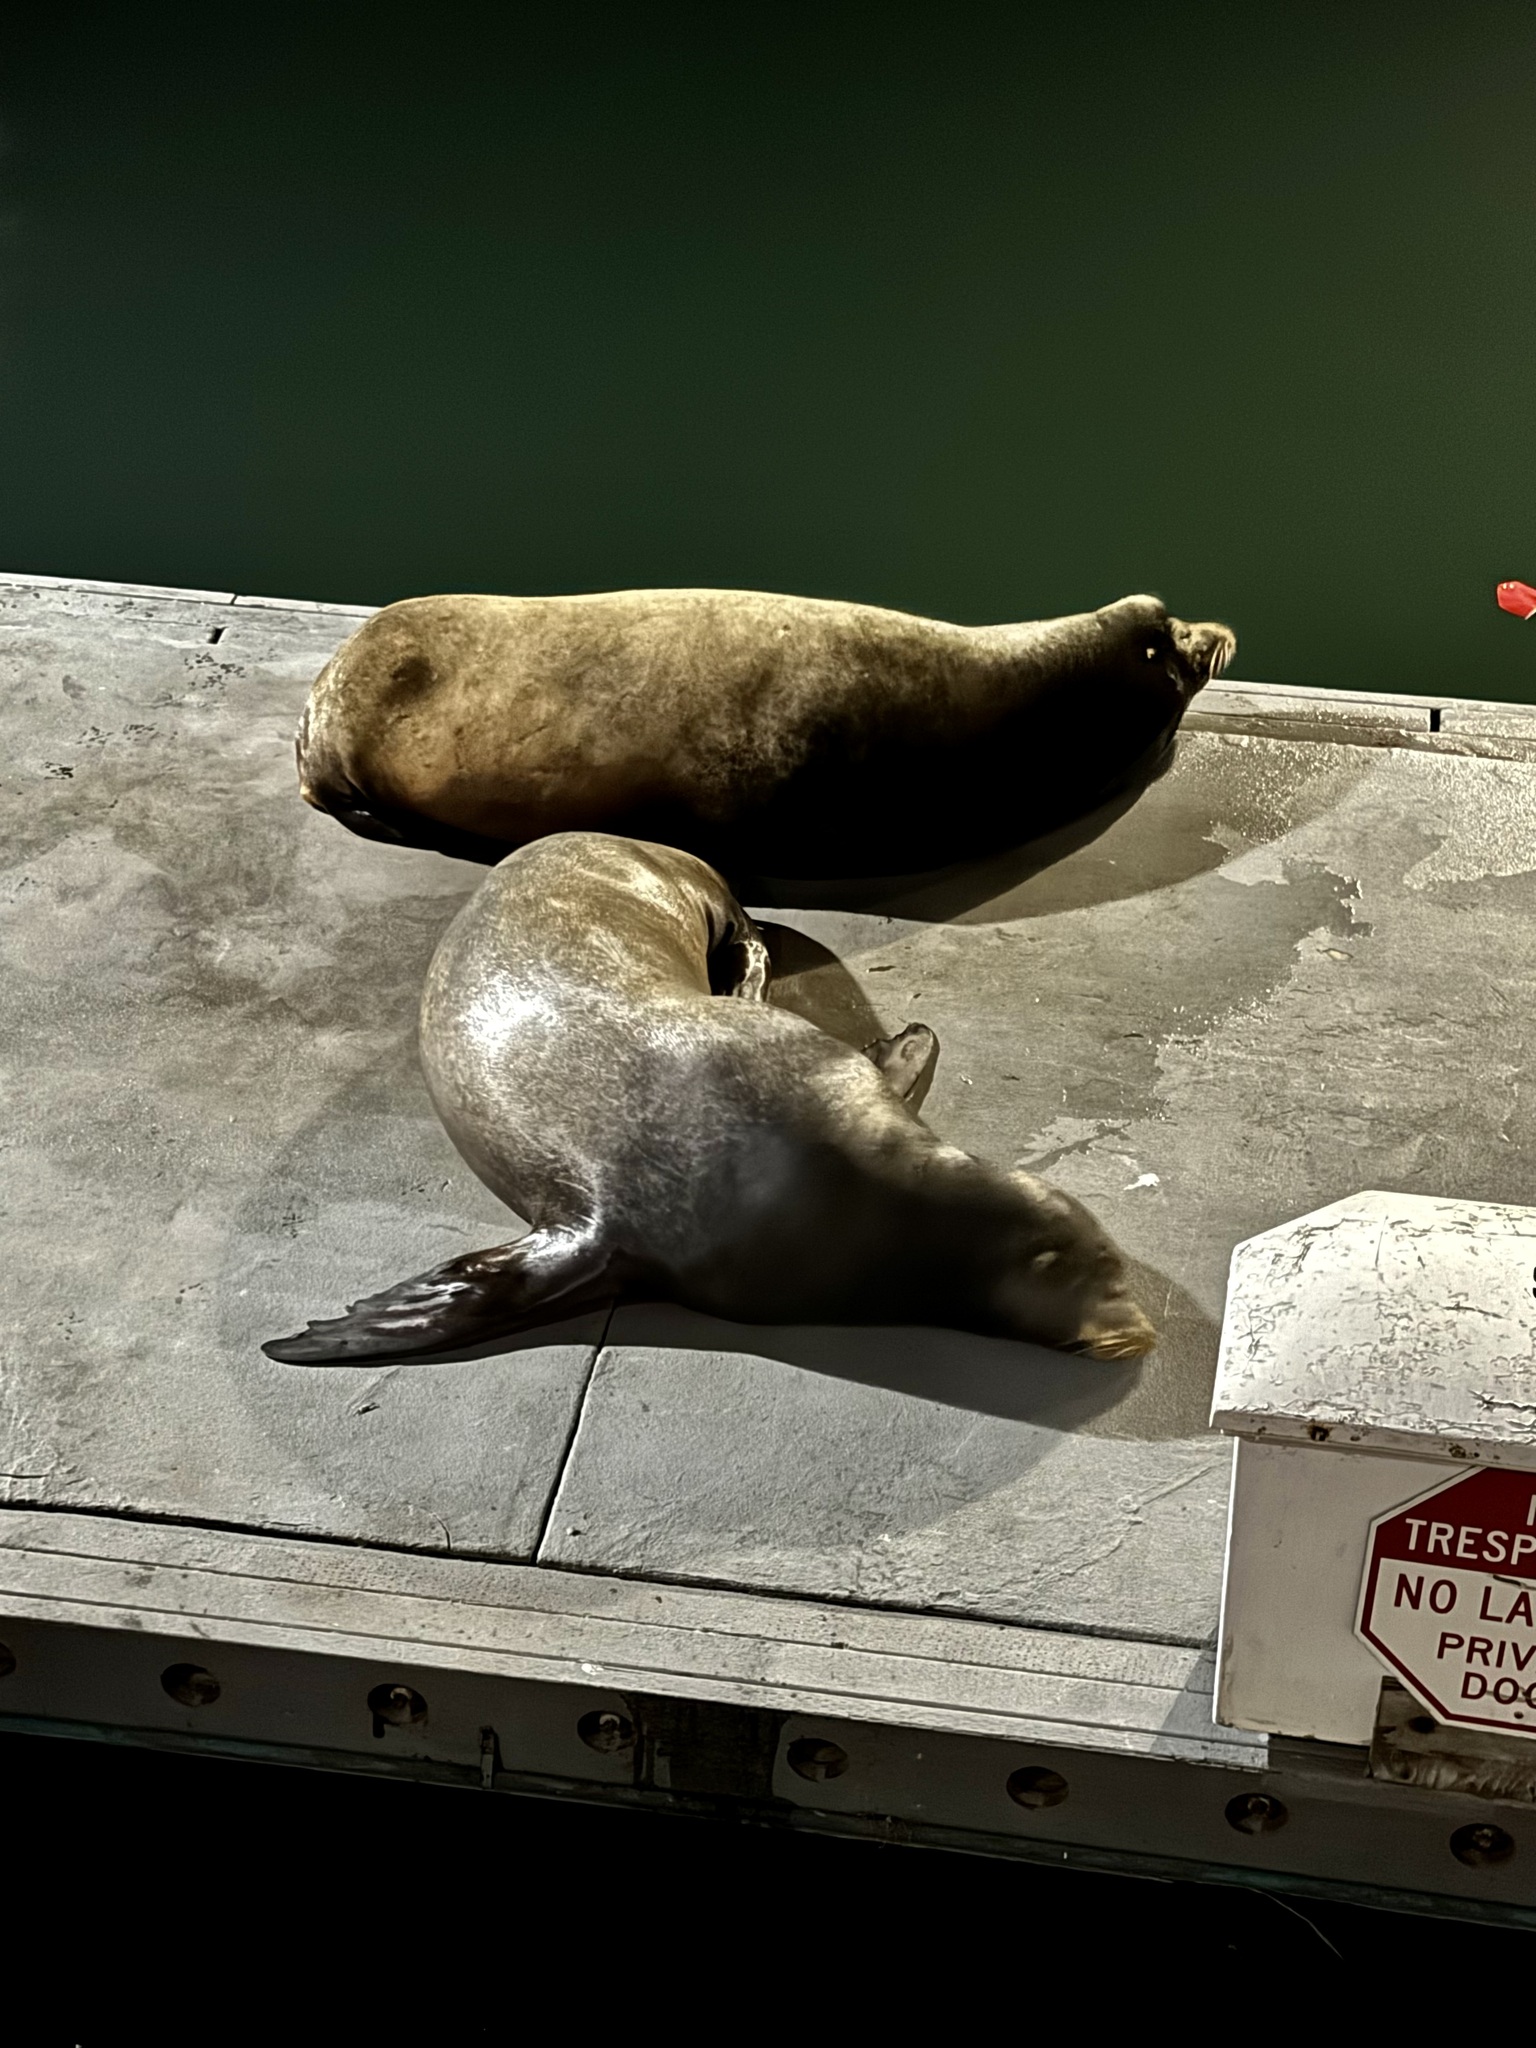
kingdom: Animalia
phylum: Chordata
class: Mammalia
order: Carnivora
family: Otariidae
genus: Zalophus
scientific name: Zalophus californianus
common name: California sea lion
